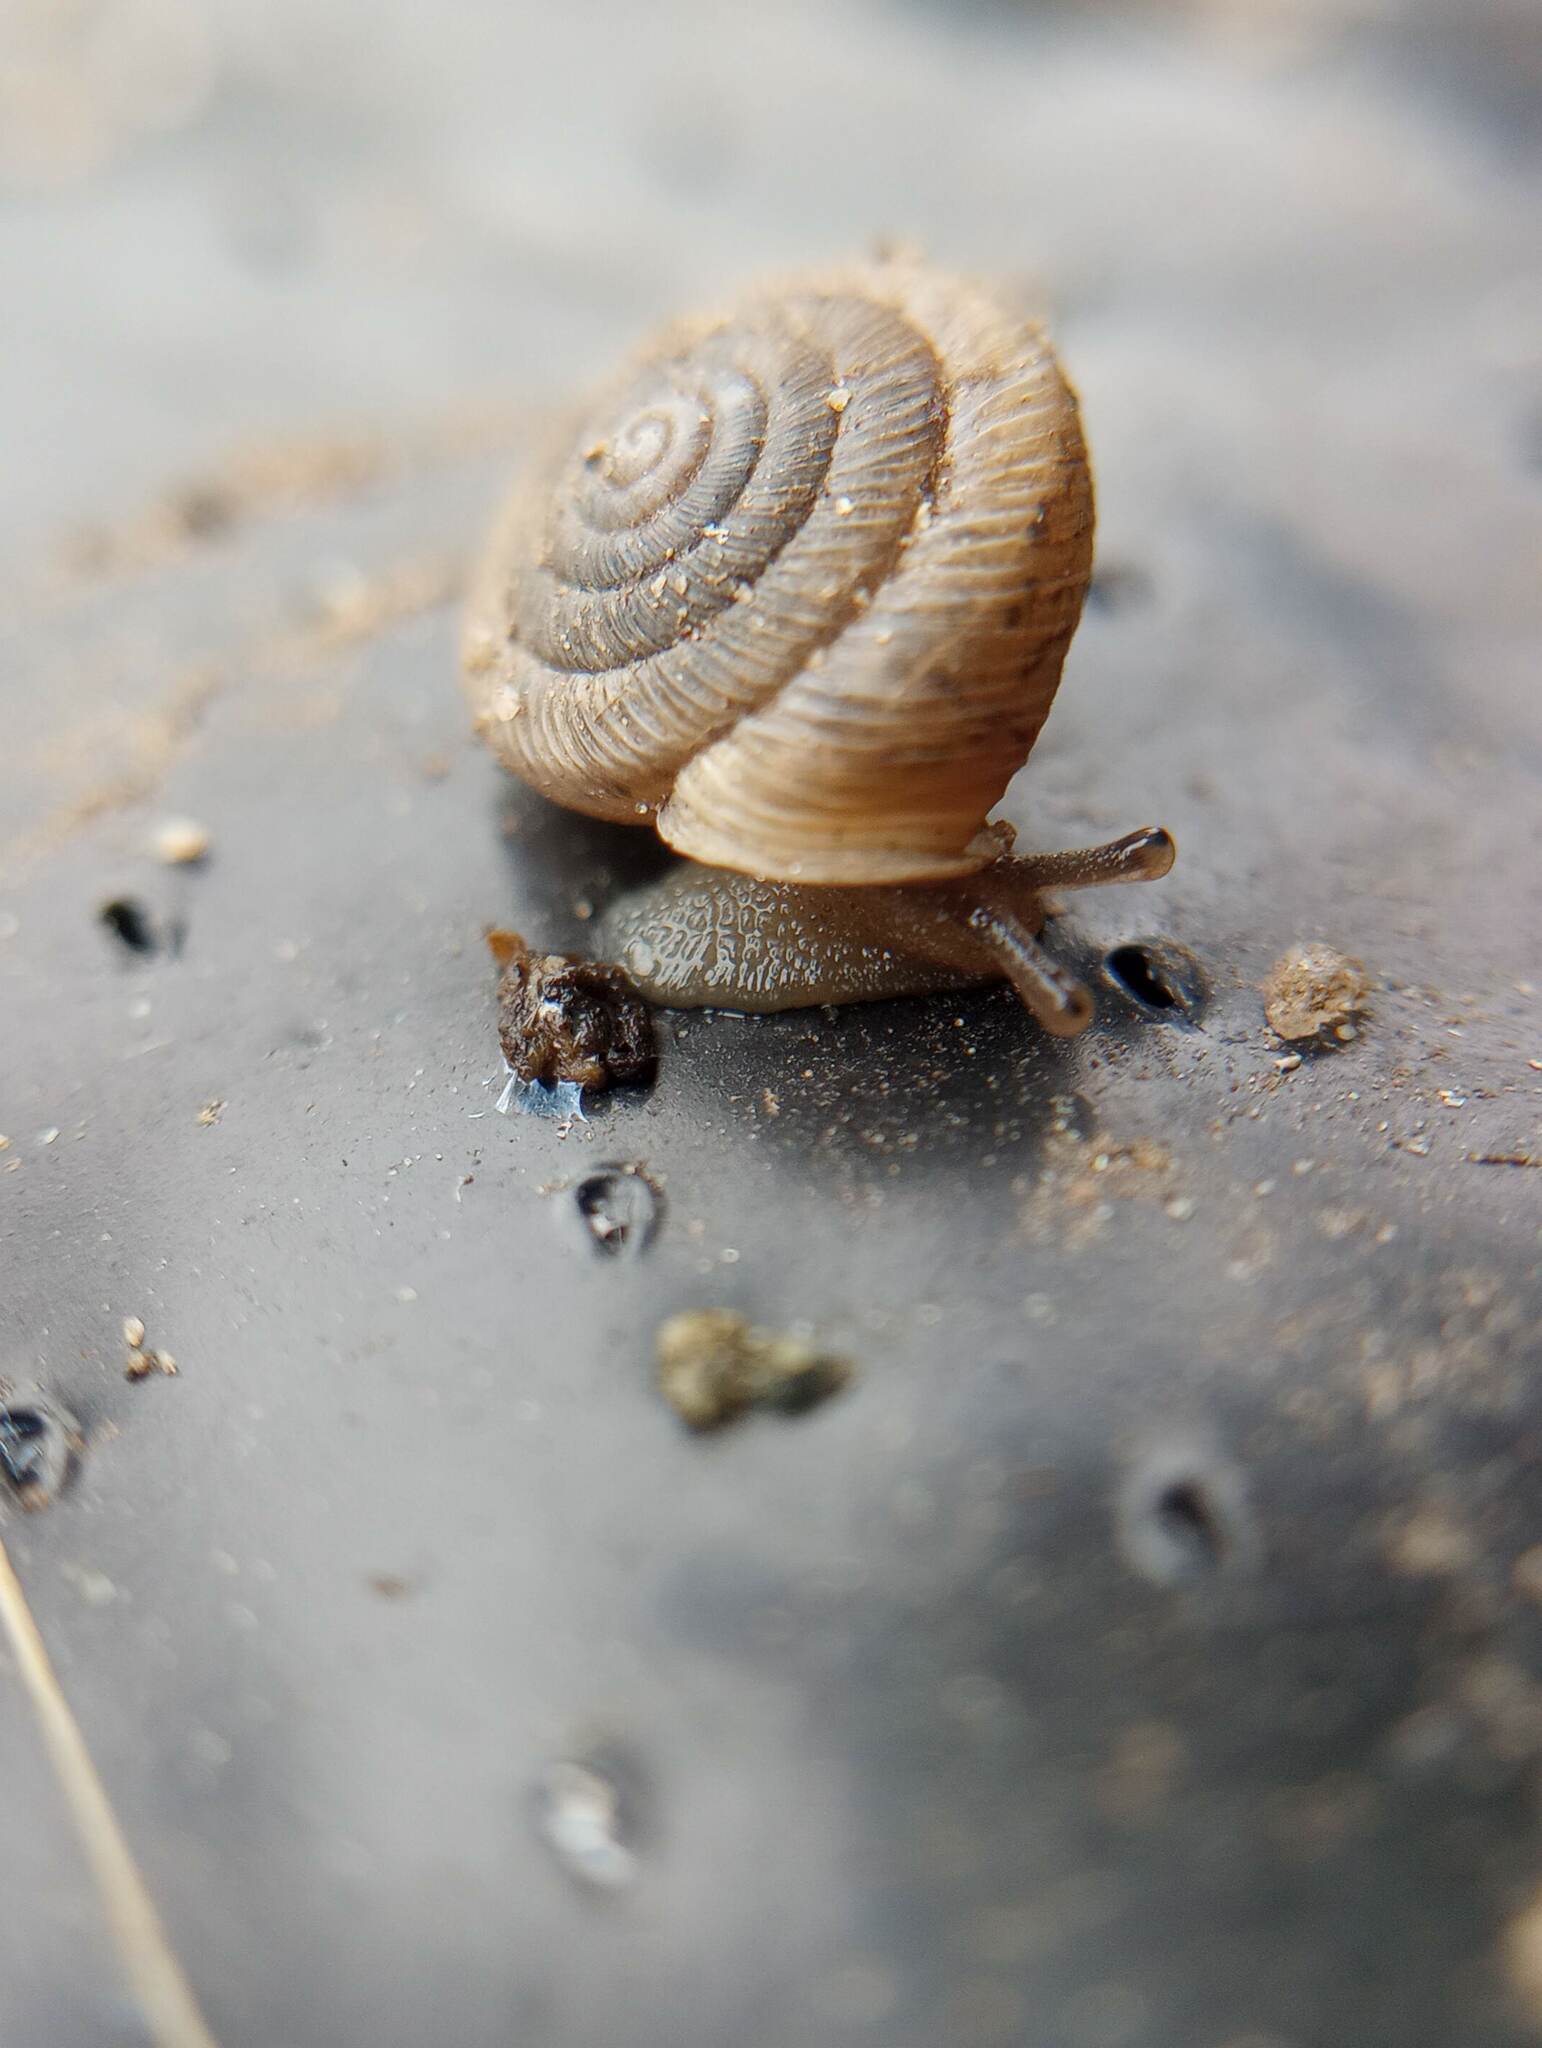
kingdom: Animalia
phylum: Mollusca
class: Gastropoda
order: Stylommatophora
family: Polygyridae
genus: Polygyra
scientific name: Polygyra cereolus
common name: Southern flatcone snail
